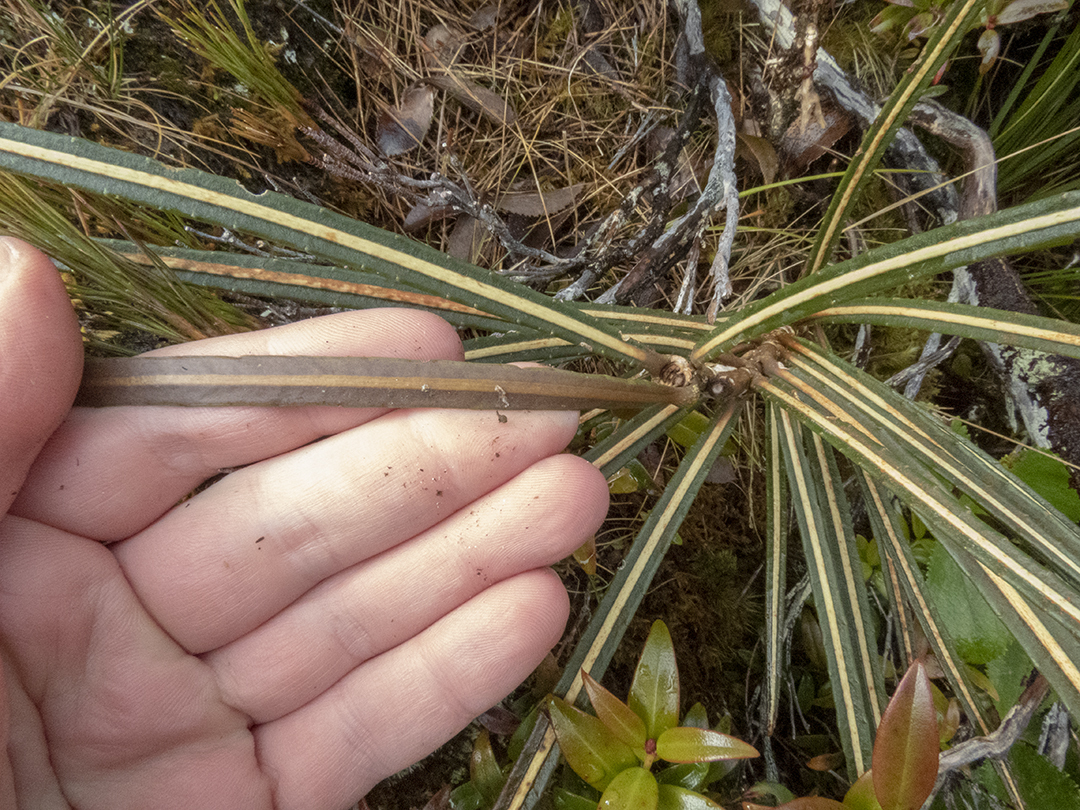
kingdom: Plantae
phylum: Tracheophyta
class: Magnoliopsida
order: Apiales
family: Araliaceae
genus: Pseudopanax
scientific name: Pseudopanax crassifolius
